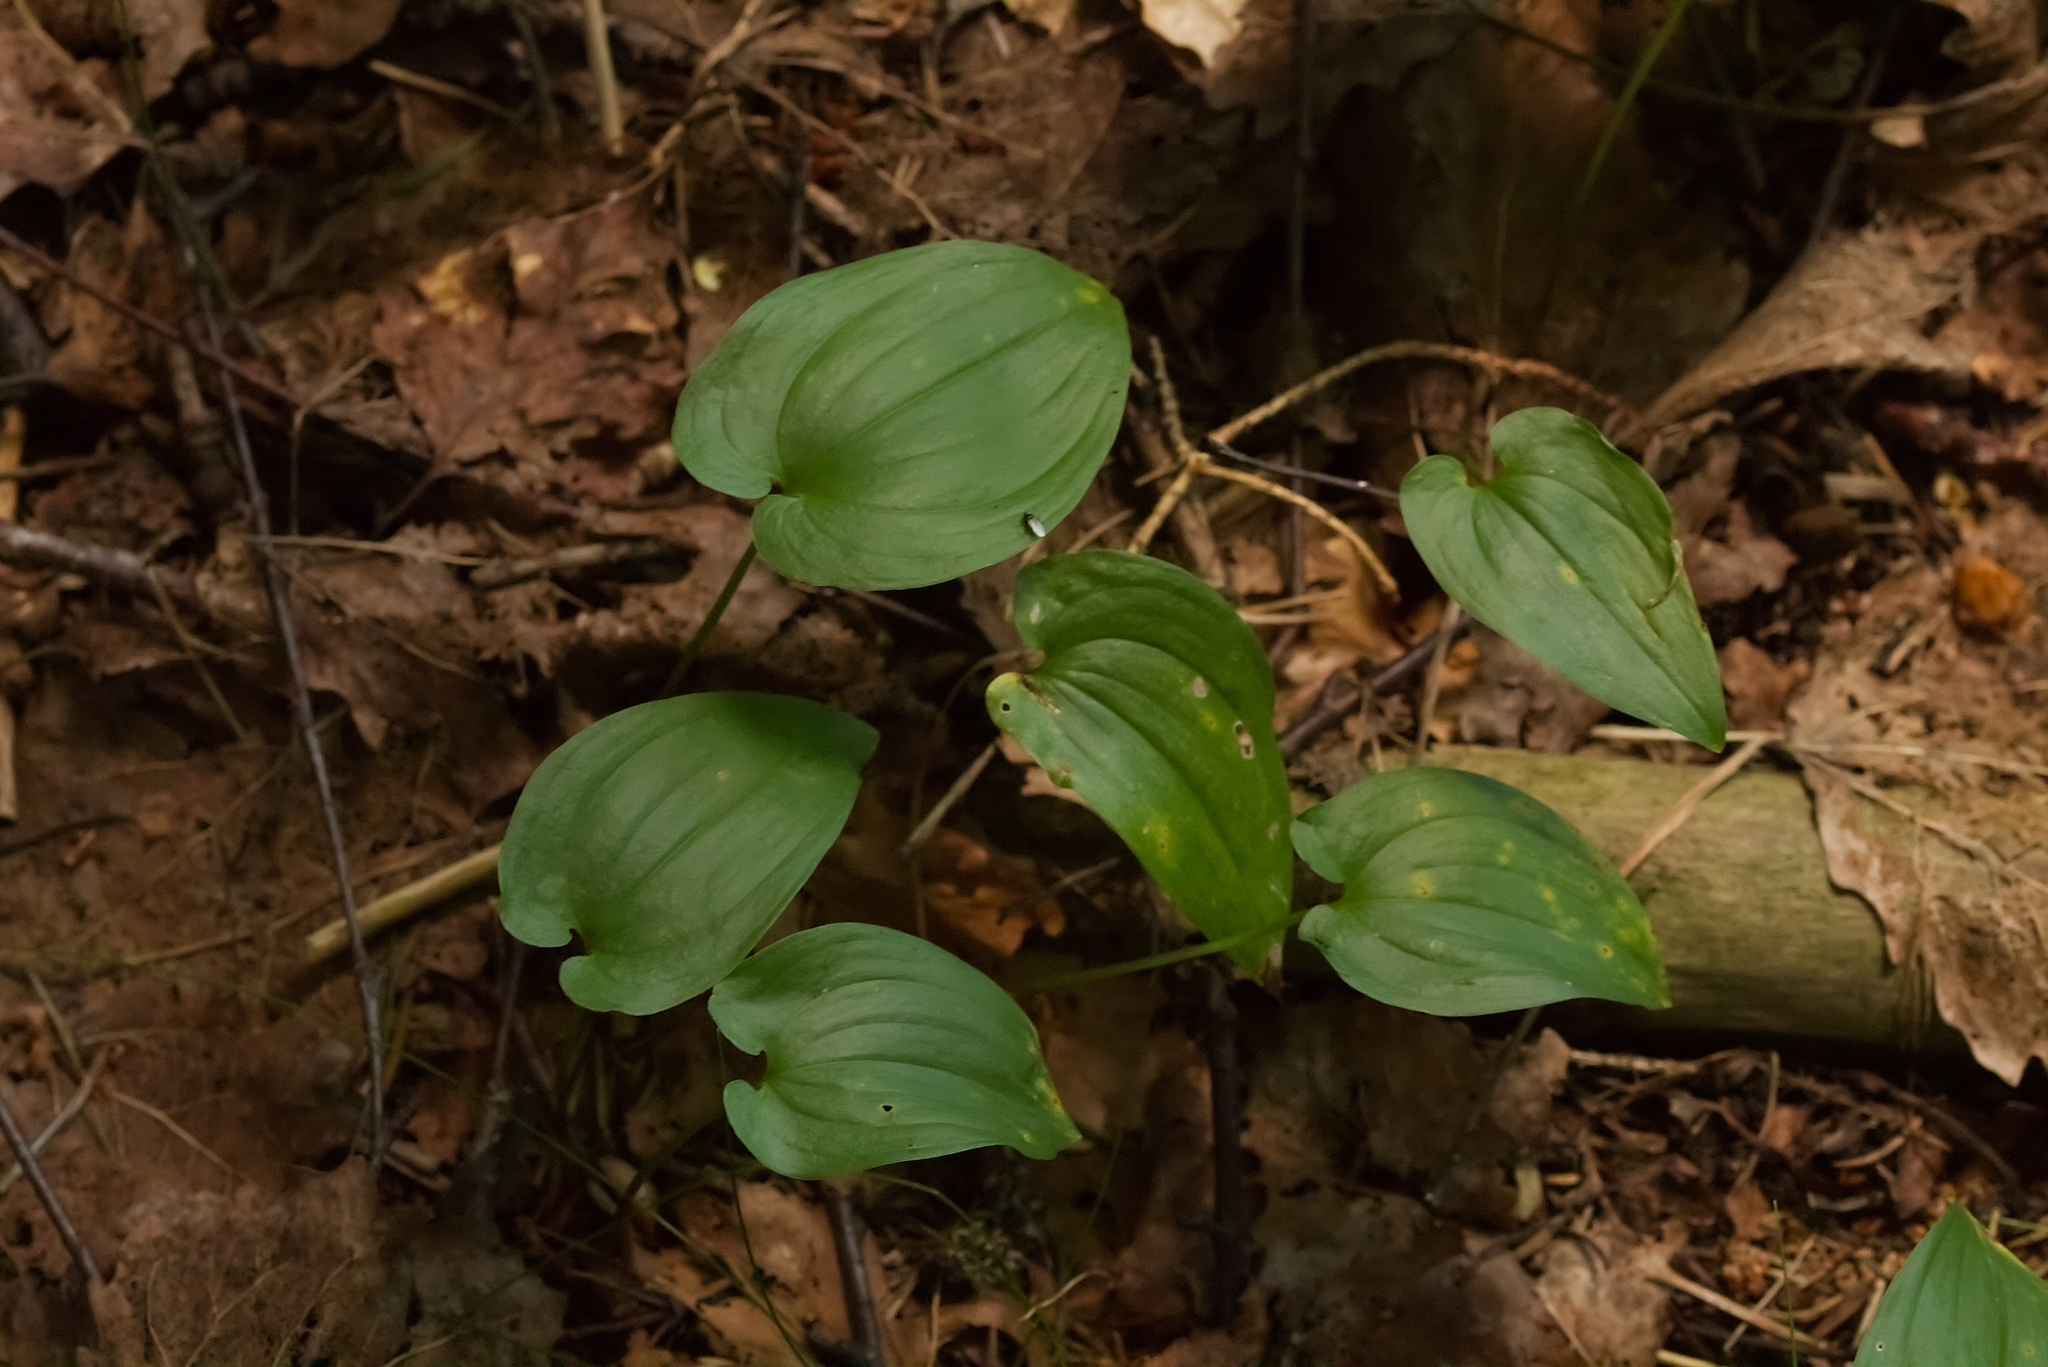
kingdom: Plantae
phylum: Tracheophyta
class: Liliopsida
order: Asparagales
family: Asparagaceae
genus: Maianthemum
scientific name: Maianthemum bifolium
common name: May lily
